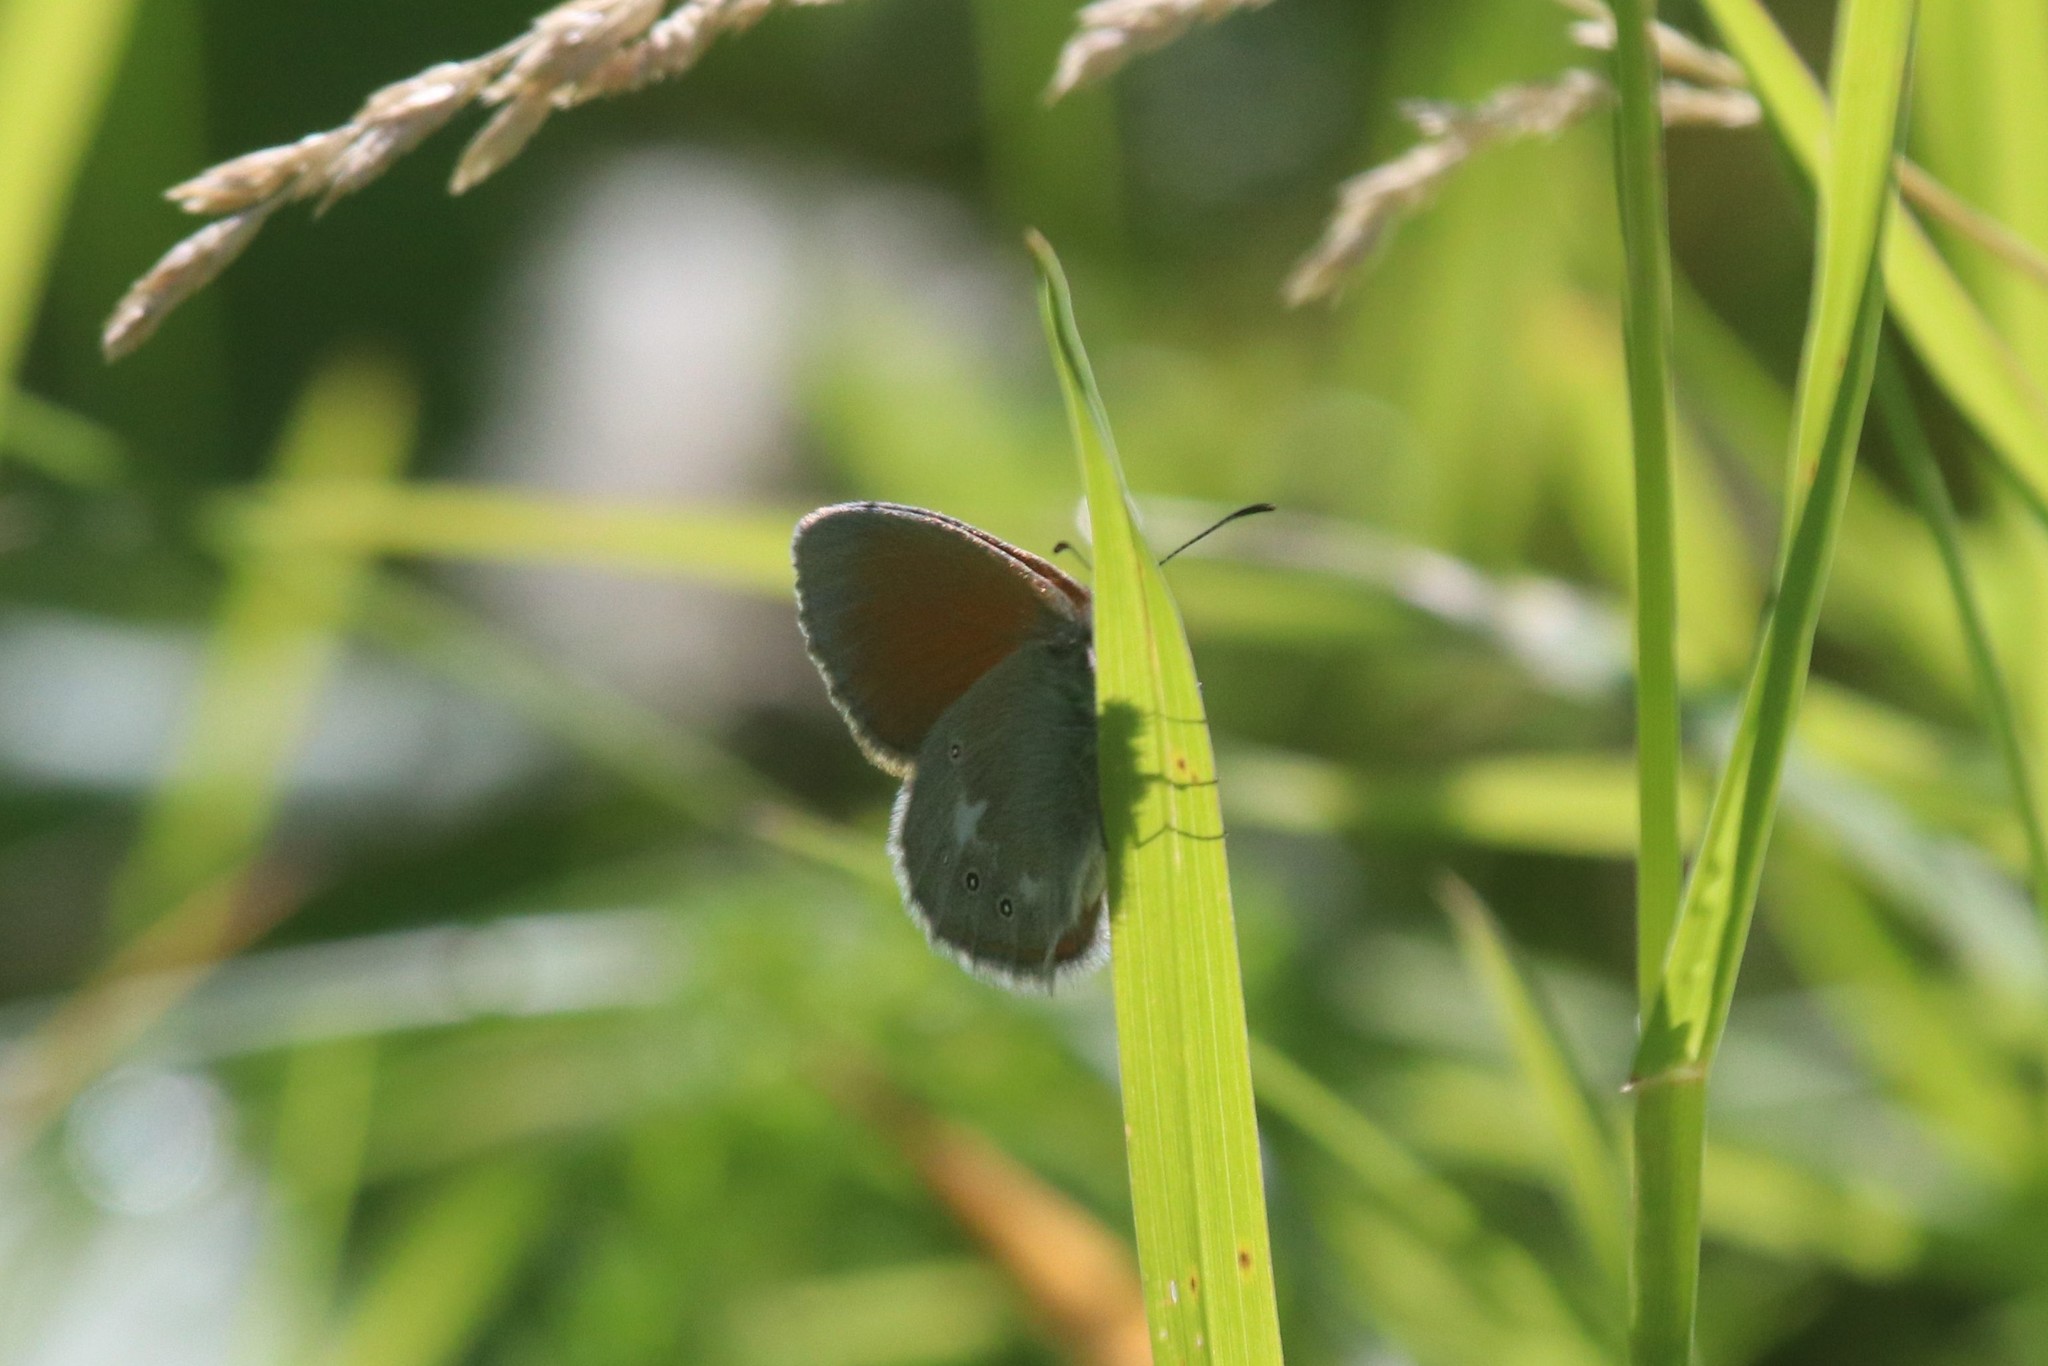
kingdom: Animalia
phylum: Arthropoda
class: Insecta
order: Lepidoptera
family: Nymphalidae
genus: Coenonympha
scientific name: Coenonympha iphis
